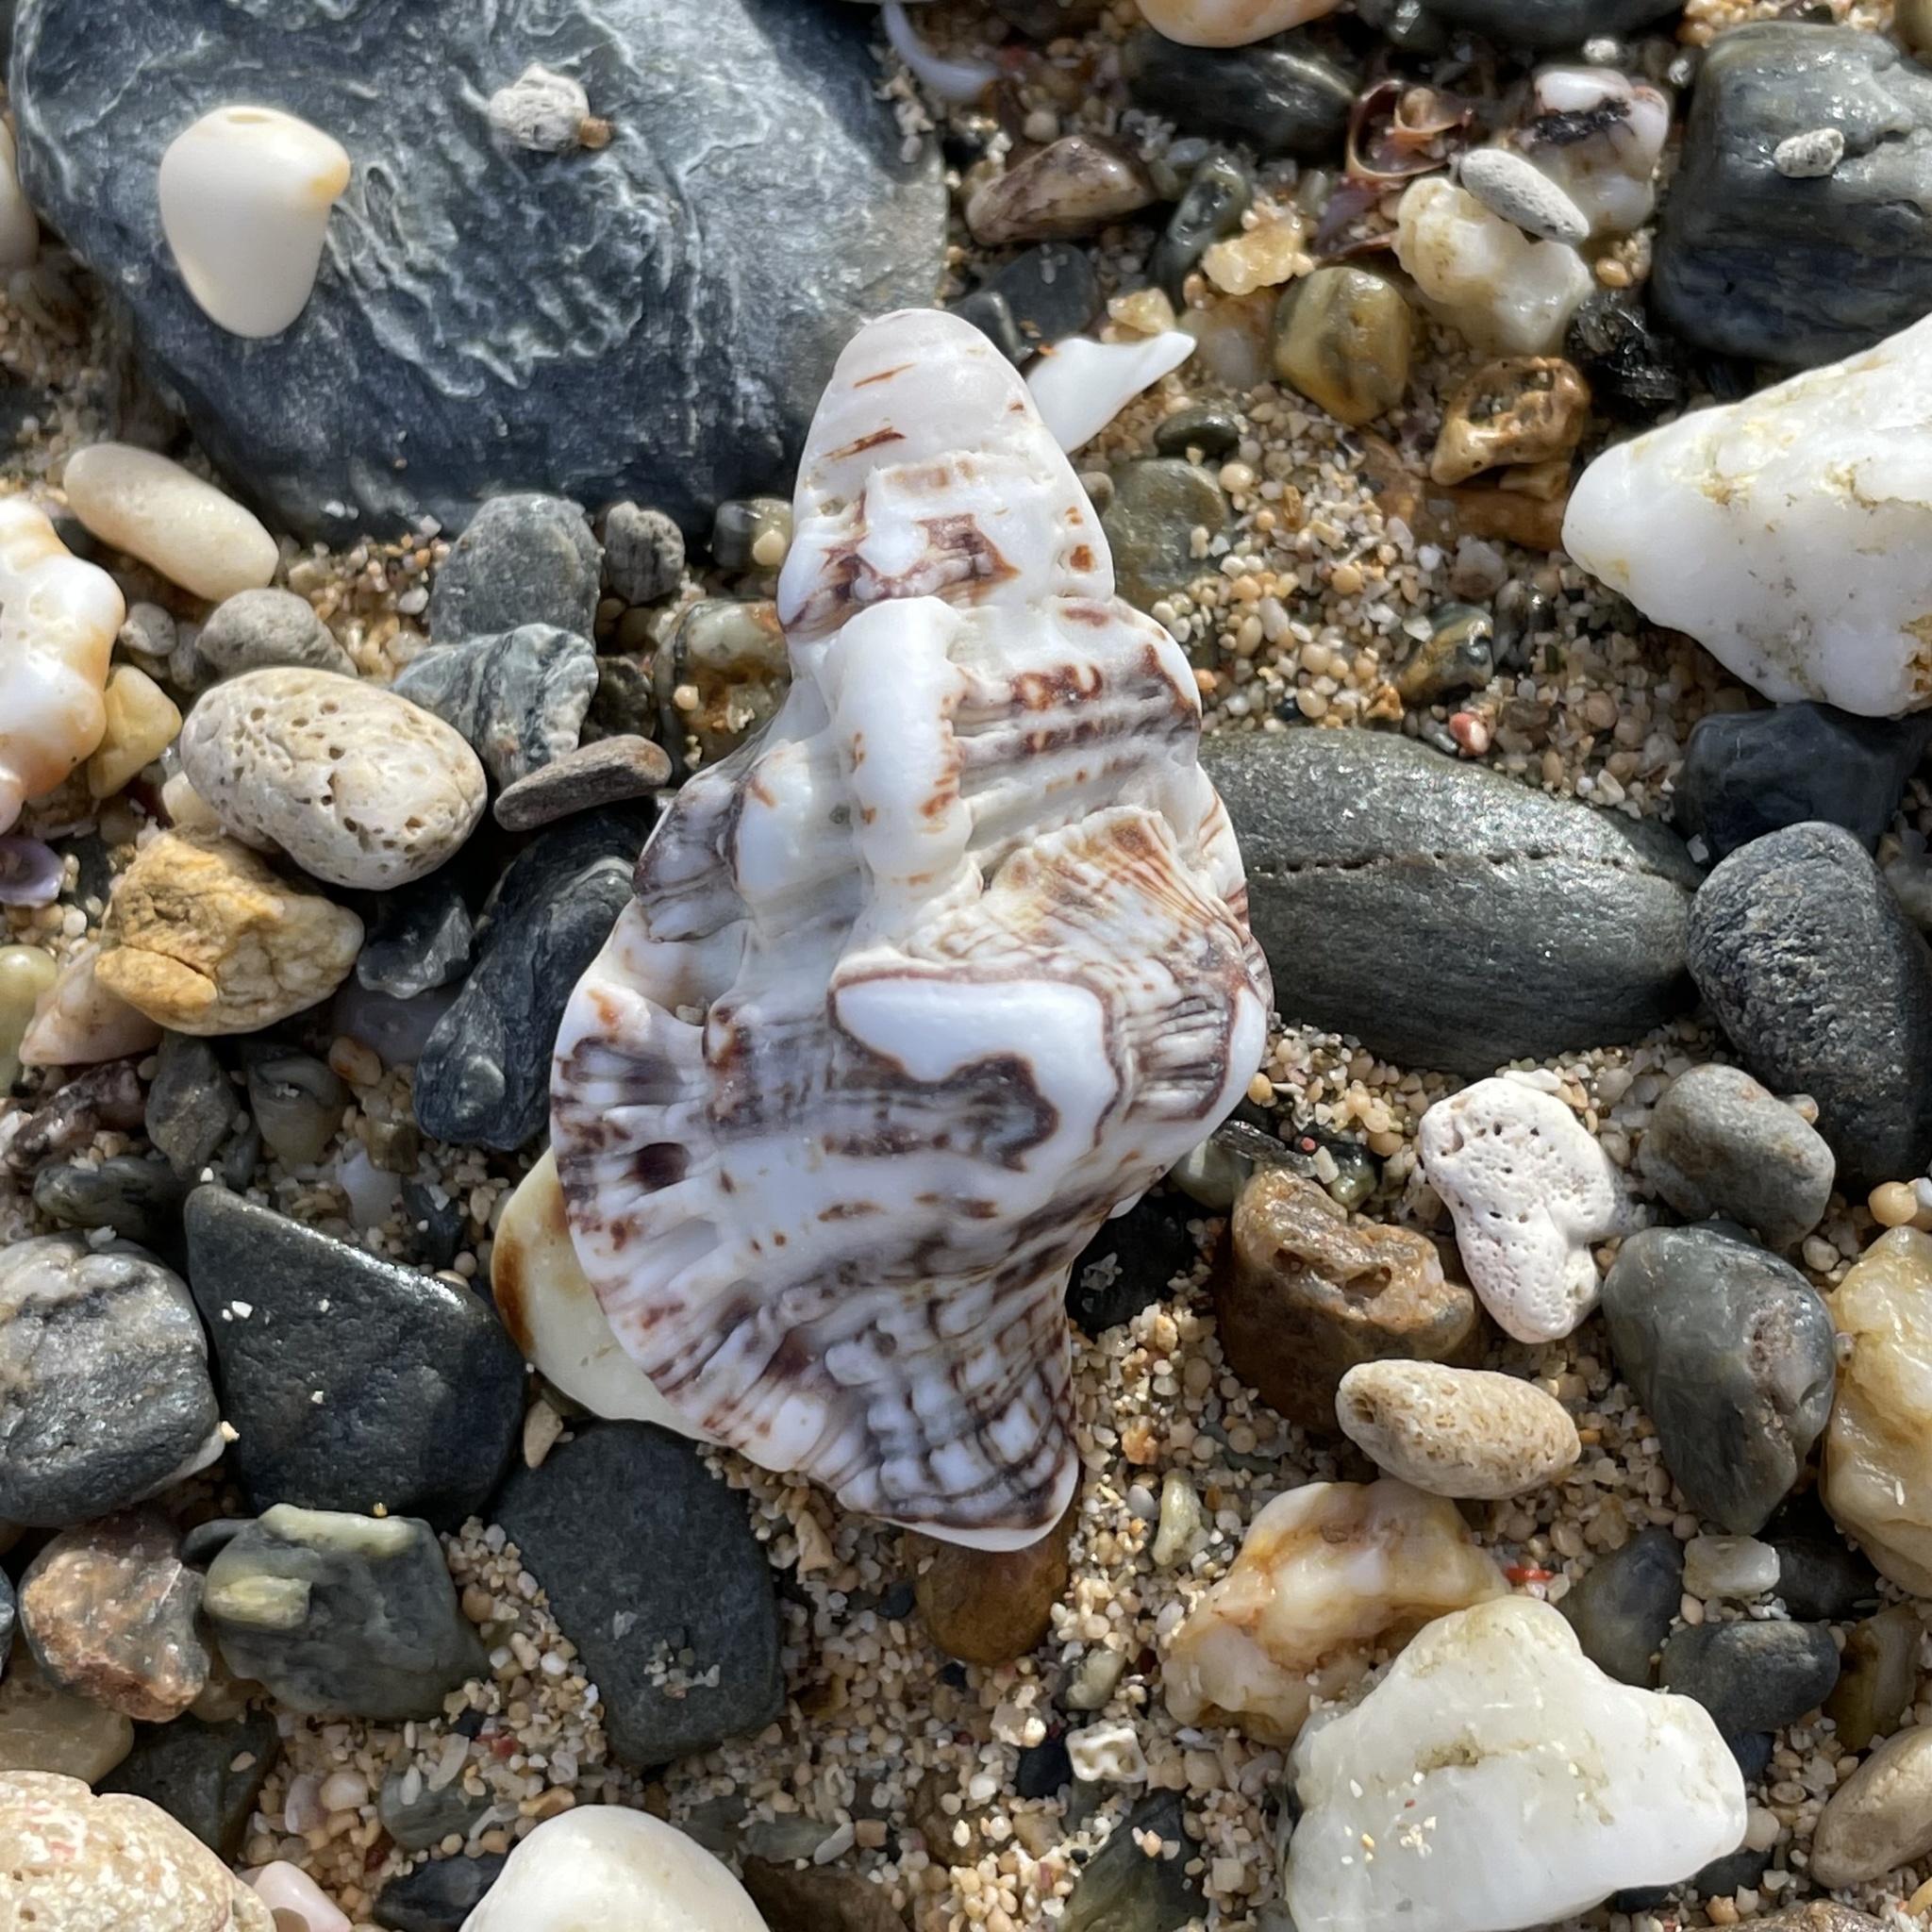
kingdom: Animalia
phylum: Mollusca
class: Gastropoda
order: Littorinimorpha
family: Cymatiidae
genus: Monoplex
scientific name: Monoplex nicobaricus
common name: Goldmouth triton
